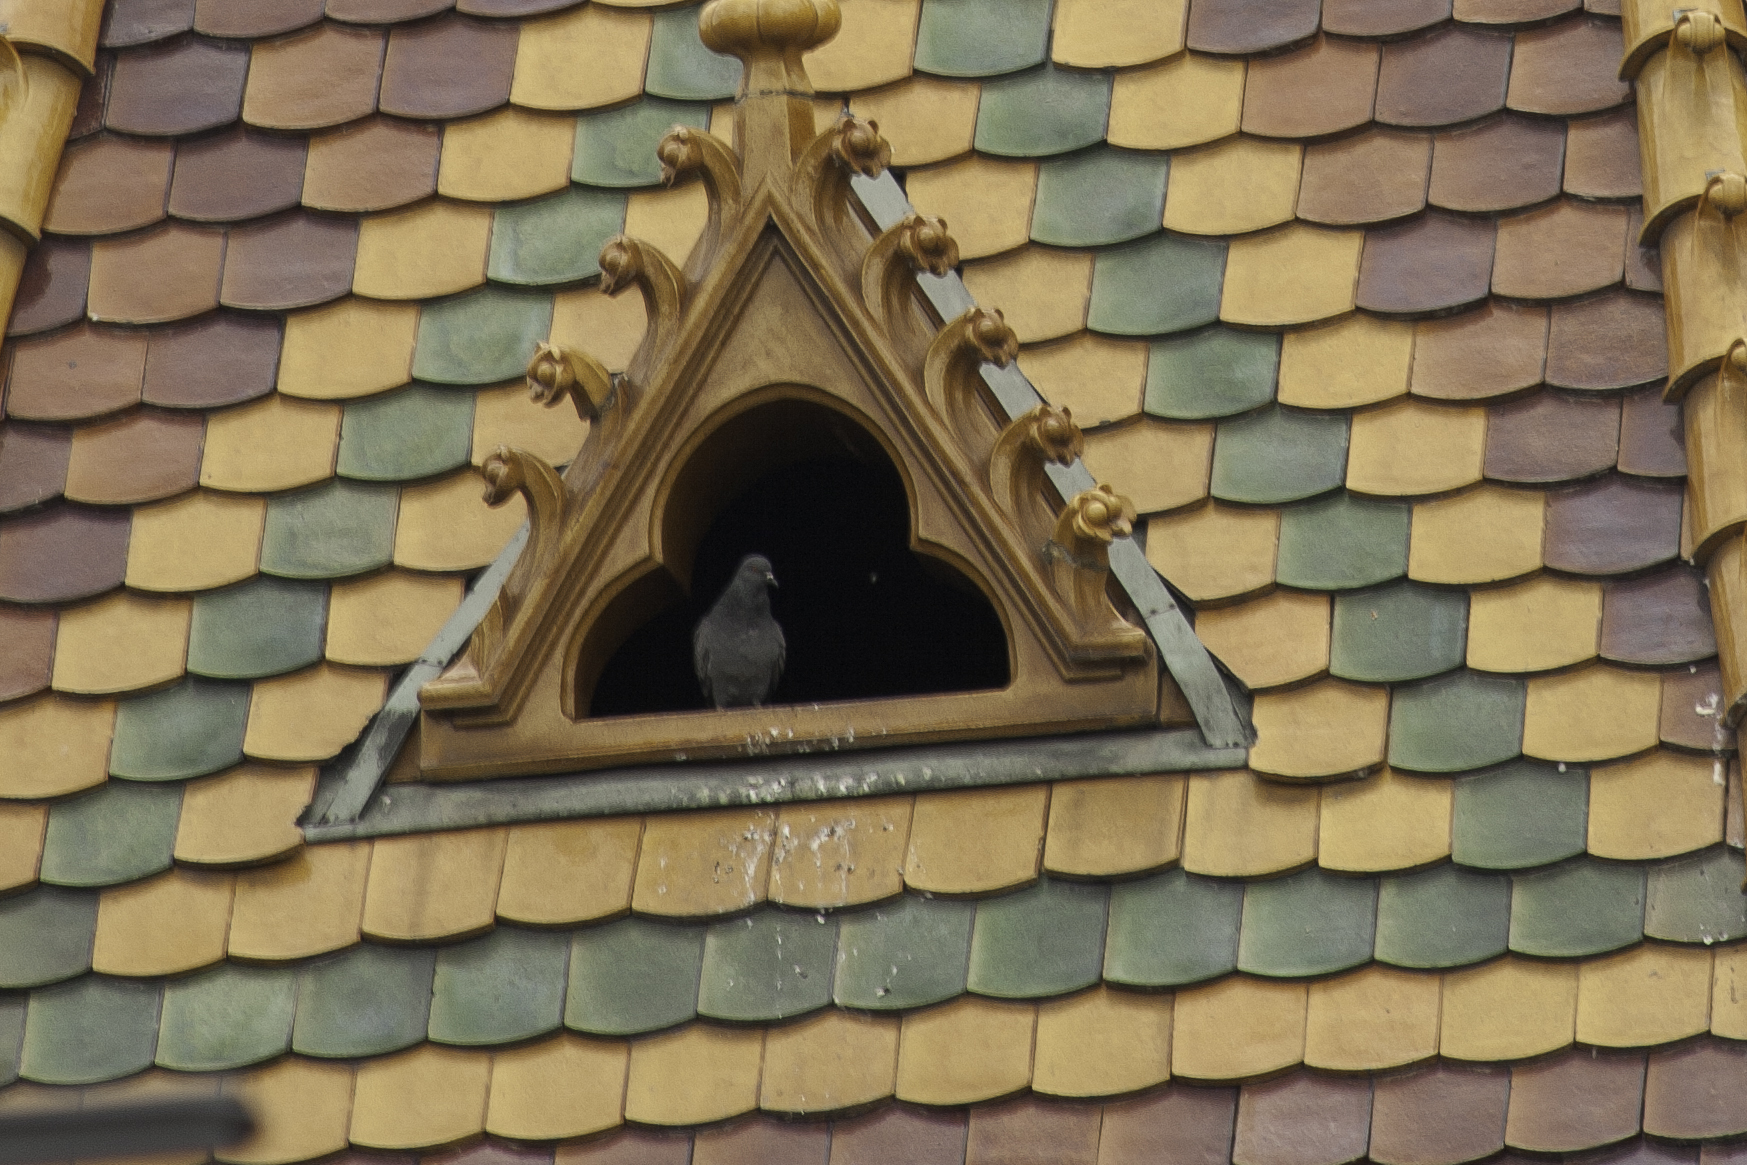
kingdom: Animalia
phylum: Chordata
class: Aves
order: Columbiformes
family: Columbidae
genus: Columba
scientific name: Columba livia
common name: Rock pigeon
